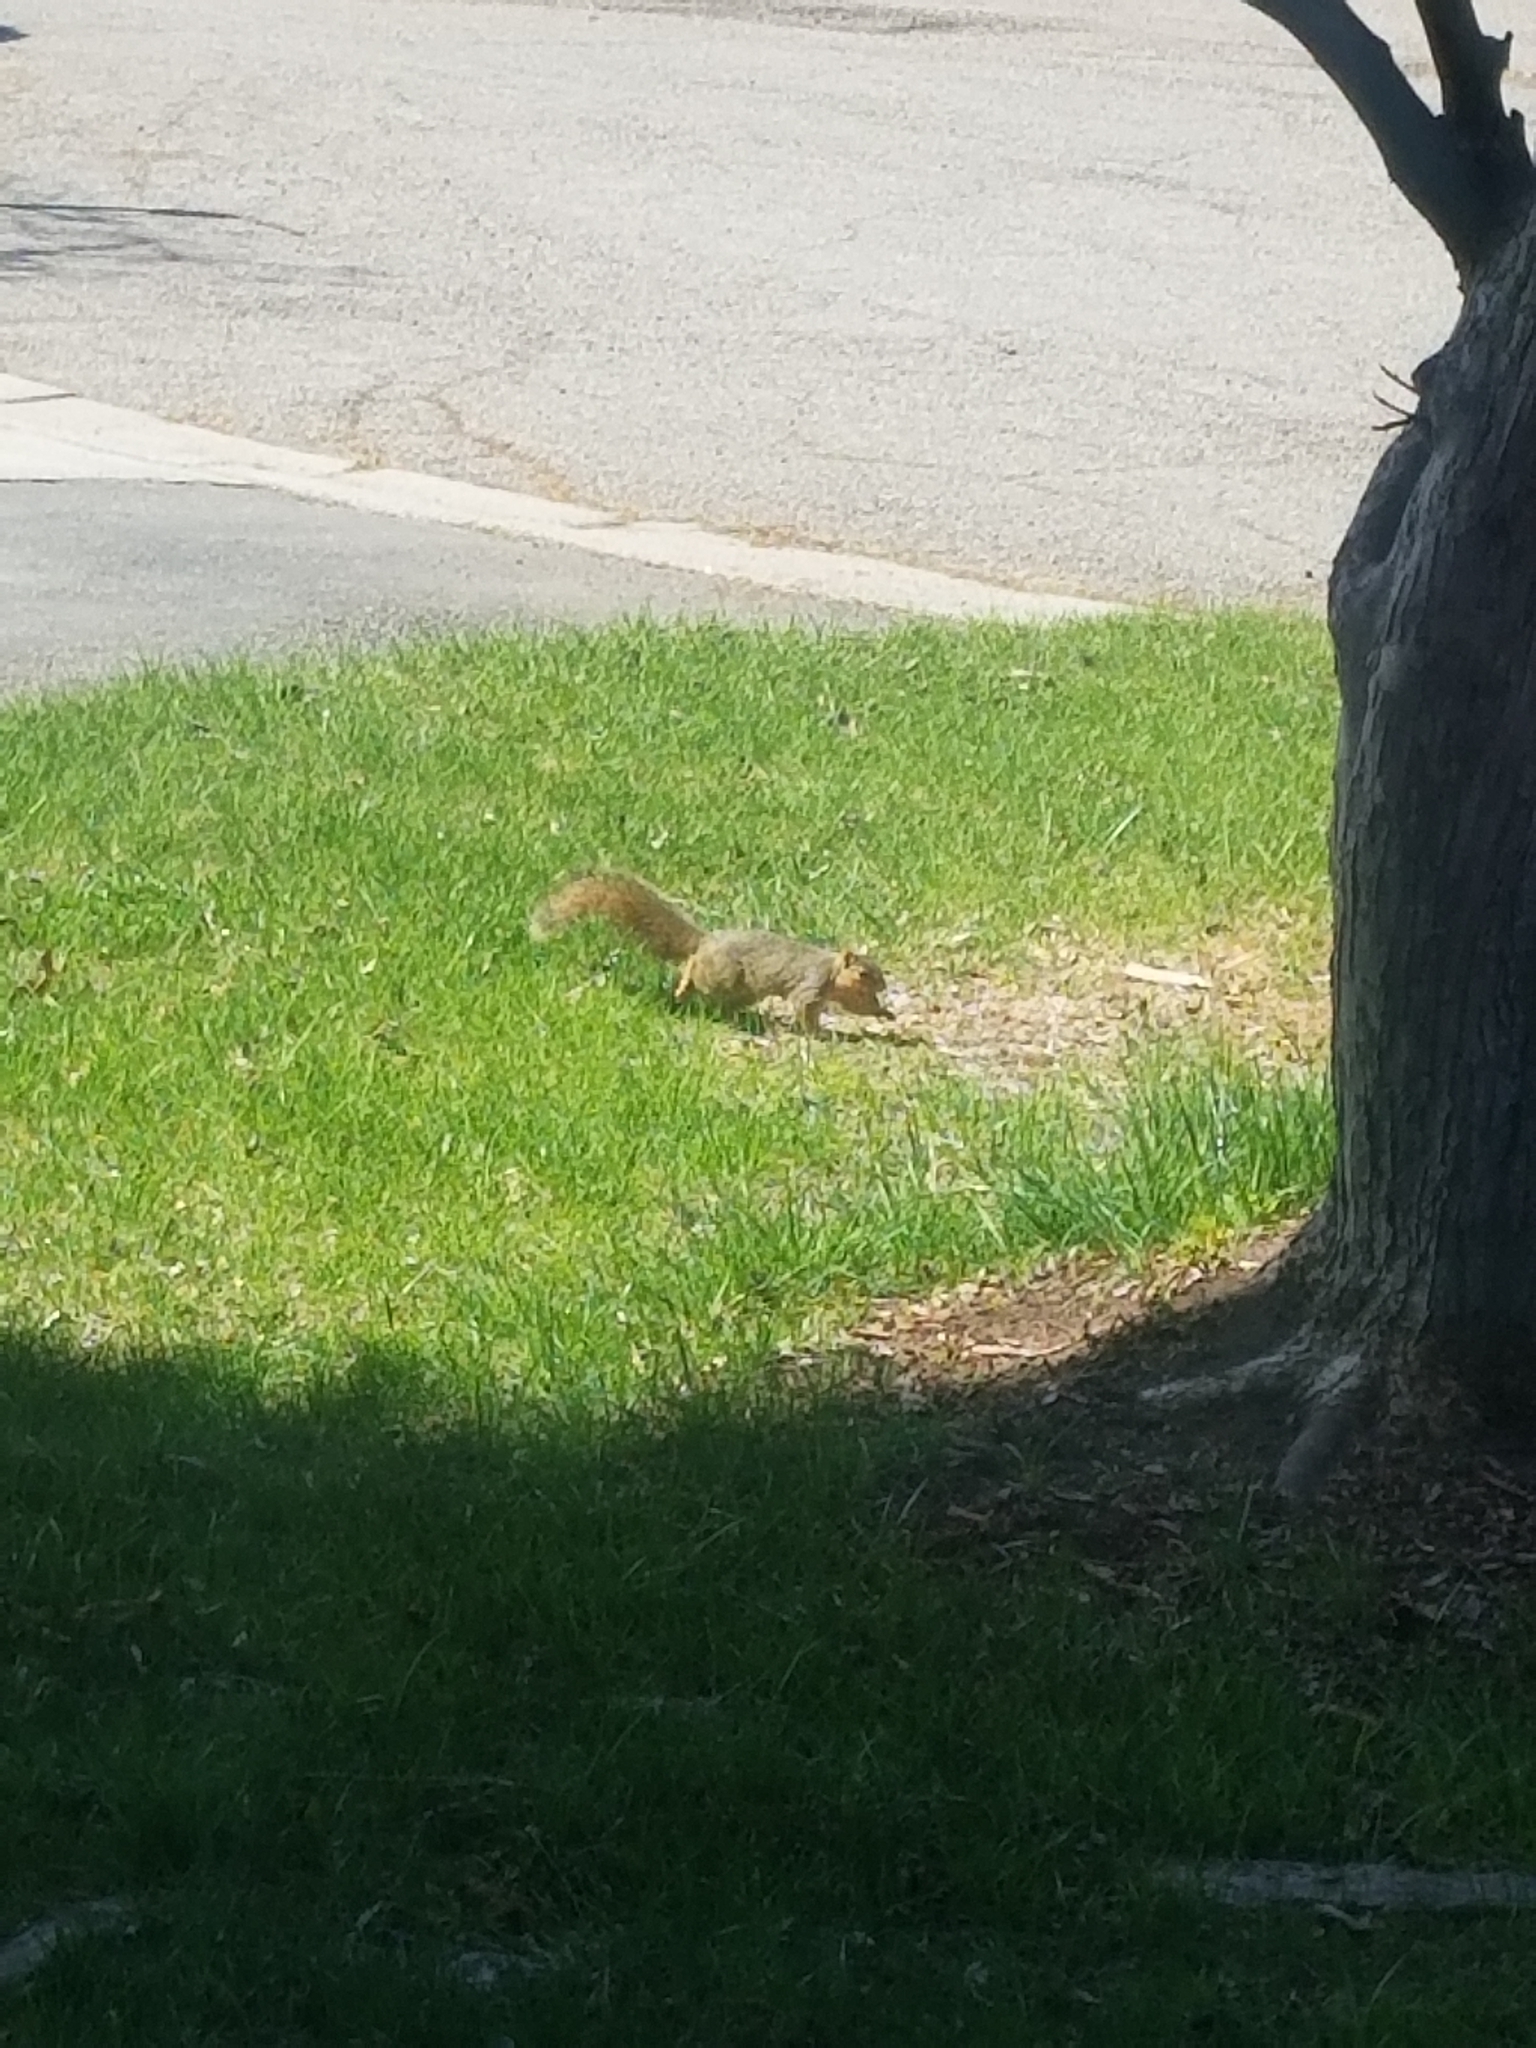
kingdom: Animalia
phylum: Chordata
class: Mammalia
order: Rodentia
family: Sciuridae
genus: Sciurus
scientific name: Sciurus niger
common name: Fox squirrel
